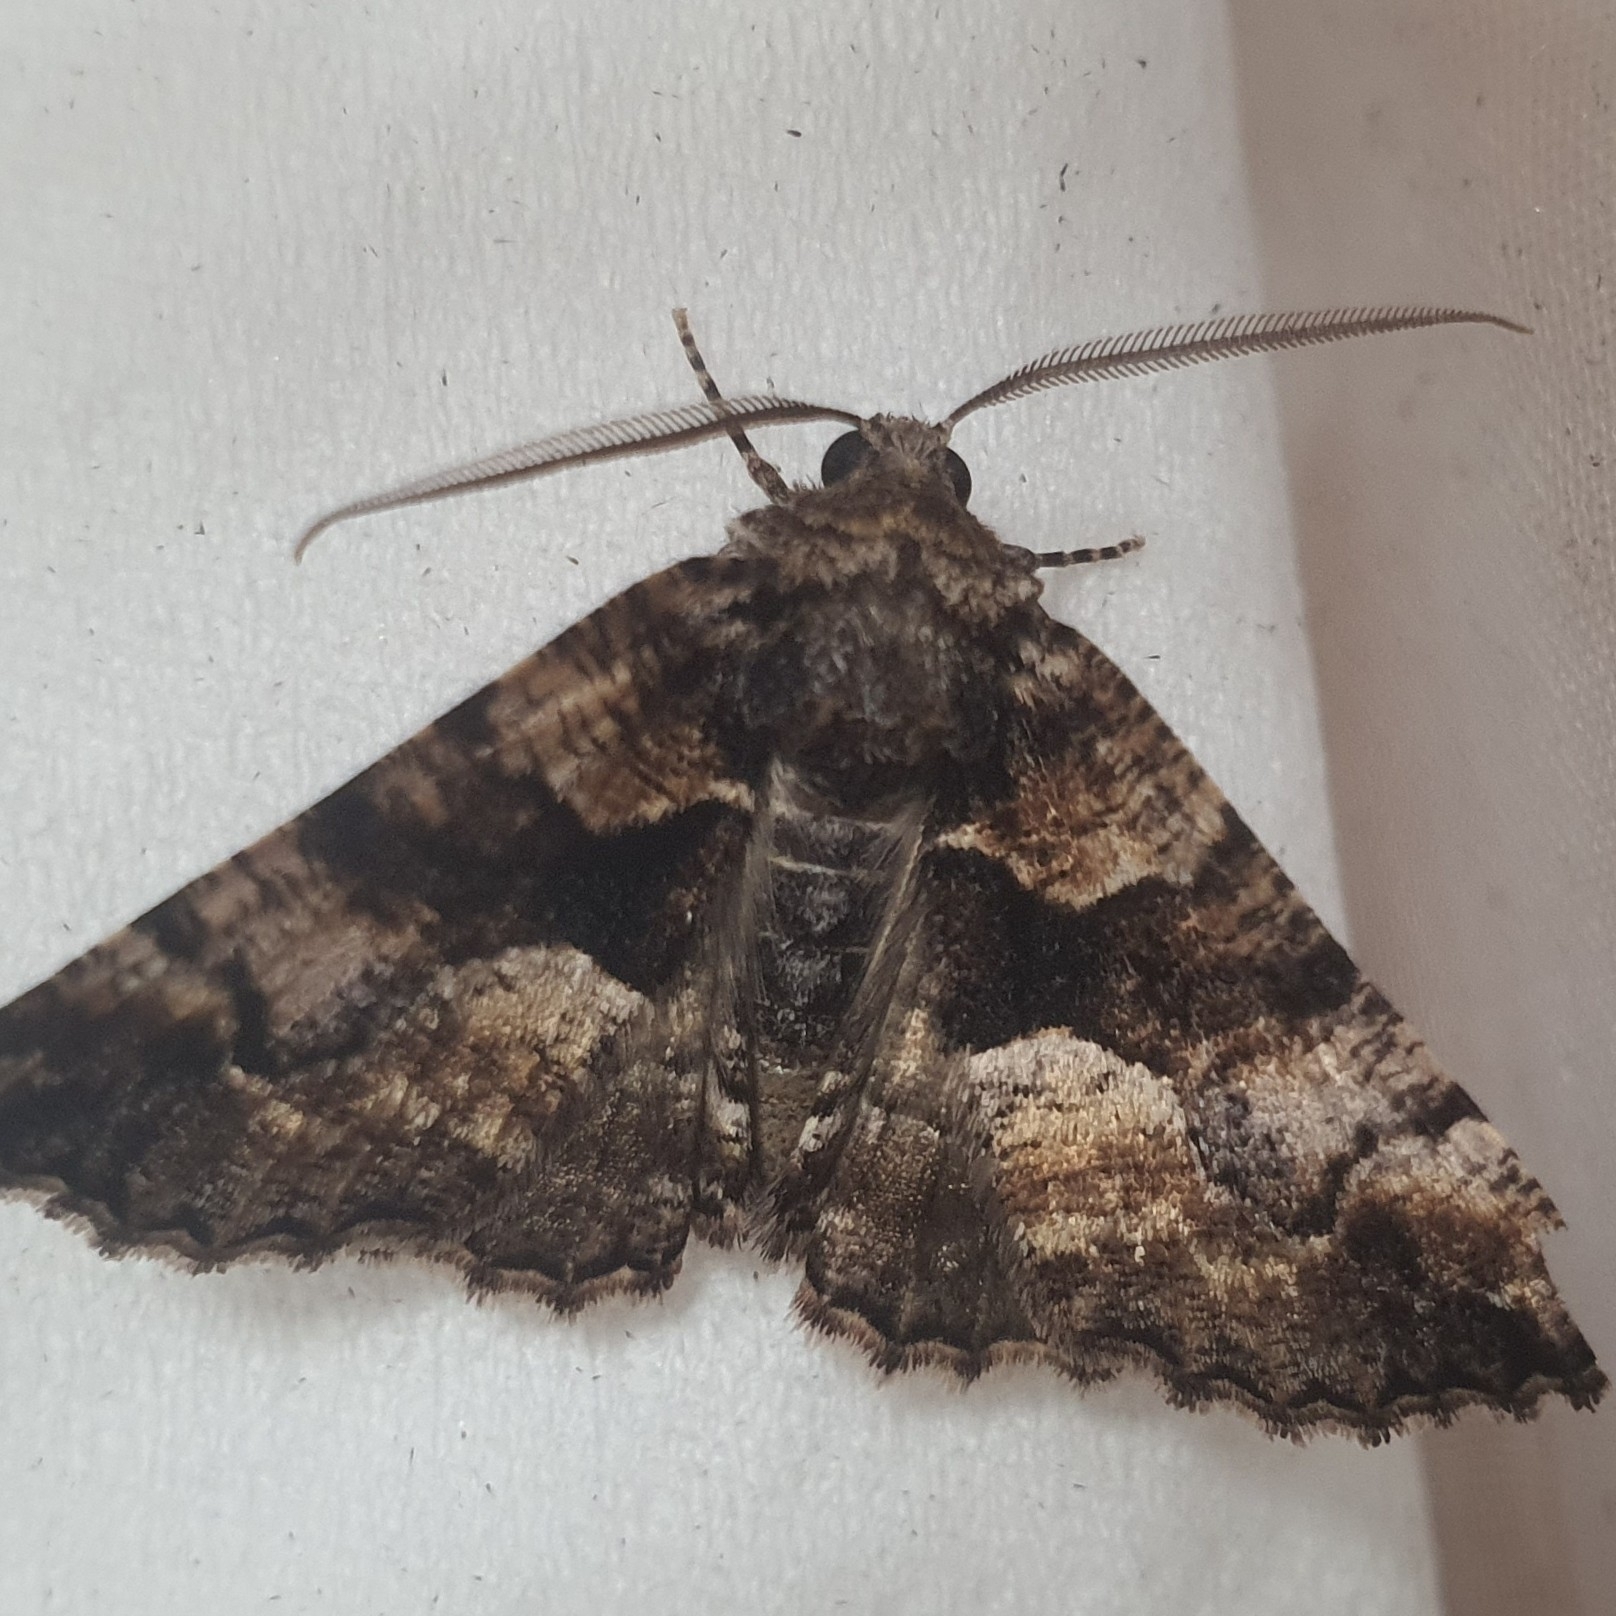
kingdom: Animalia
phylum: Arthropoda
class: Insecta
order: Lepidoptera
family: Geometridae
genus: Gastrina
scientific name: Gastrina cristaria
